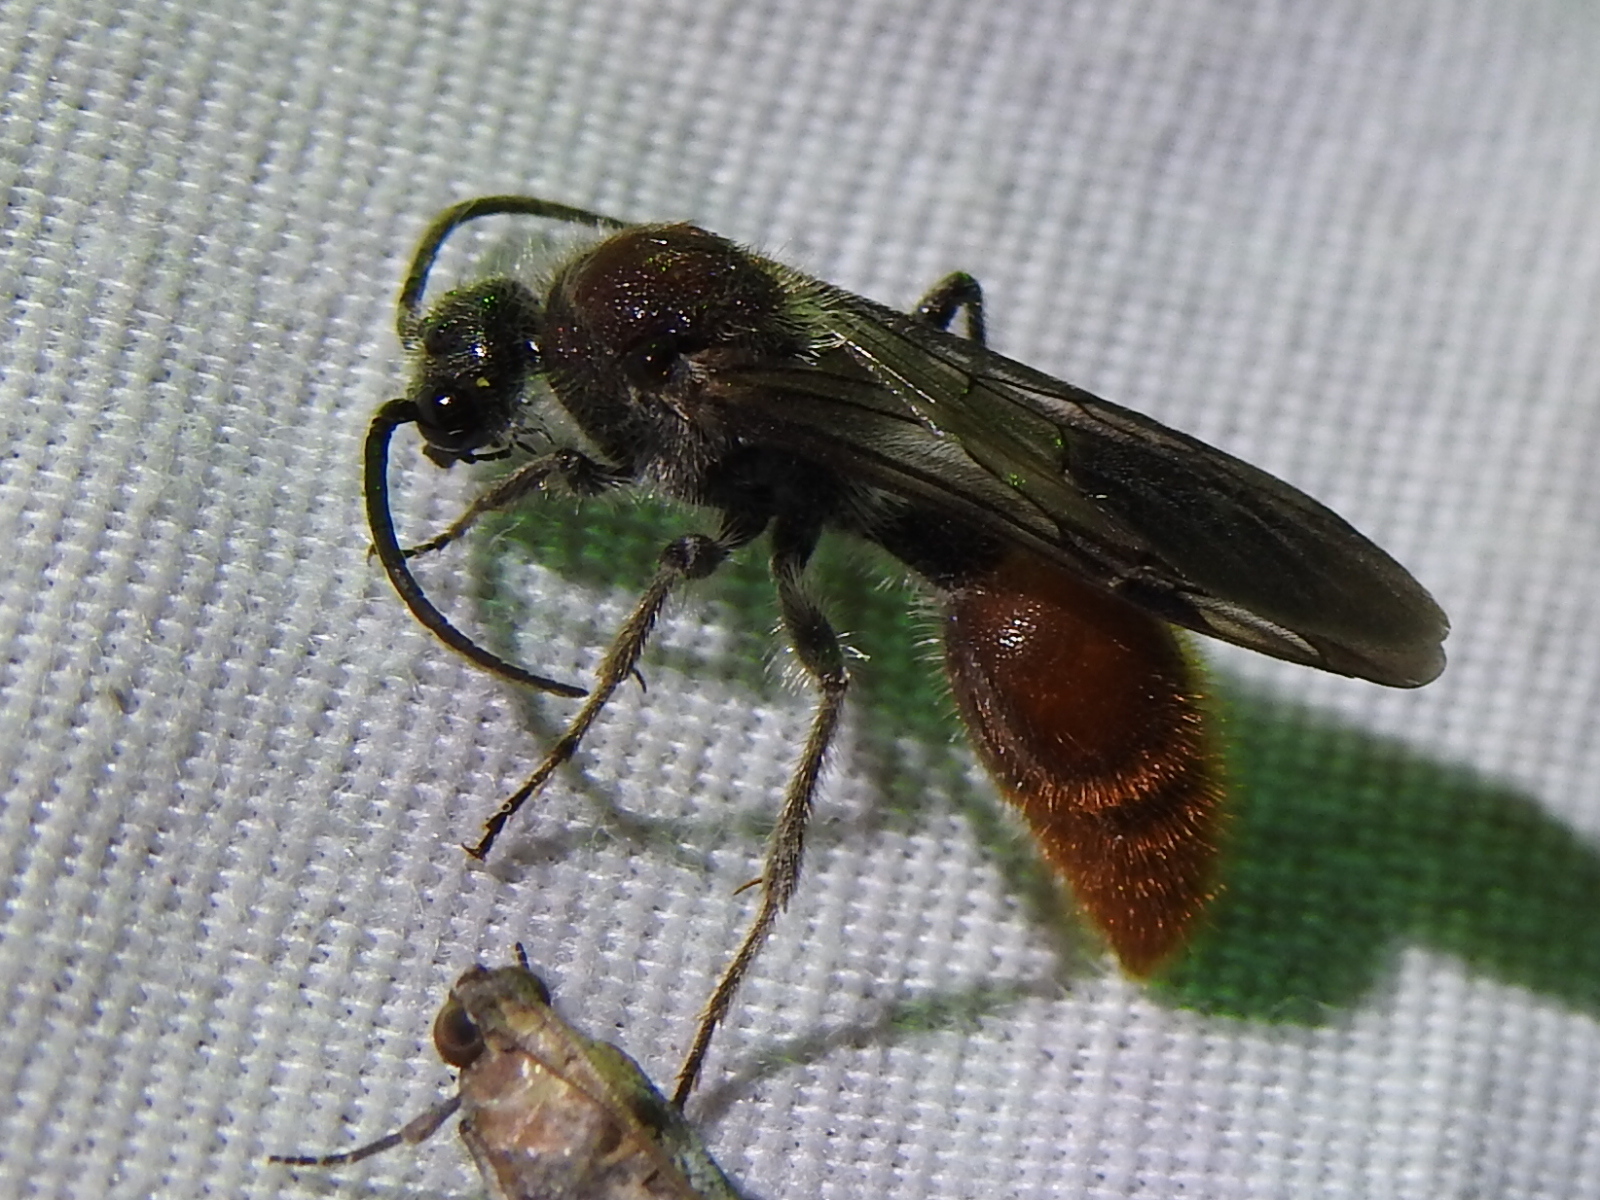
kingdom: Animalia
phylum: Arthropoda
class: Insecta
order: Hymenoptera
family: Mutillidae
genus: Sphaeropthalma
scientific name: Sphaeropthalma imperialis
